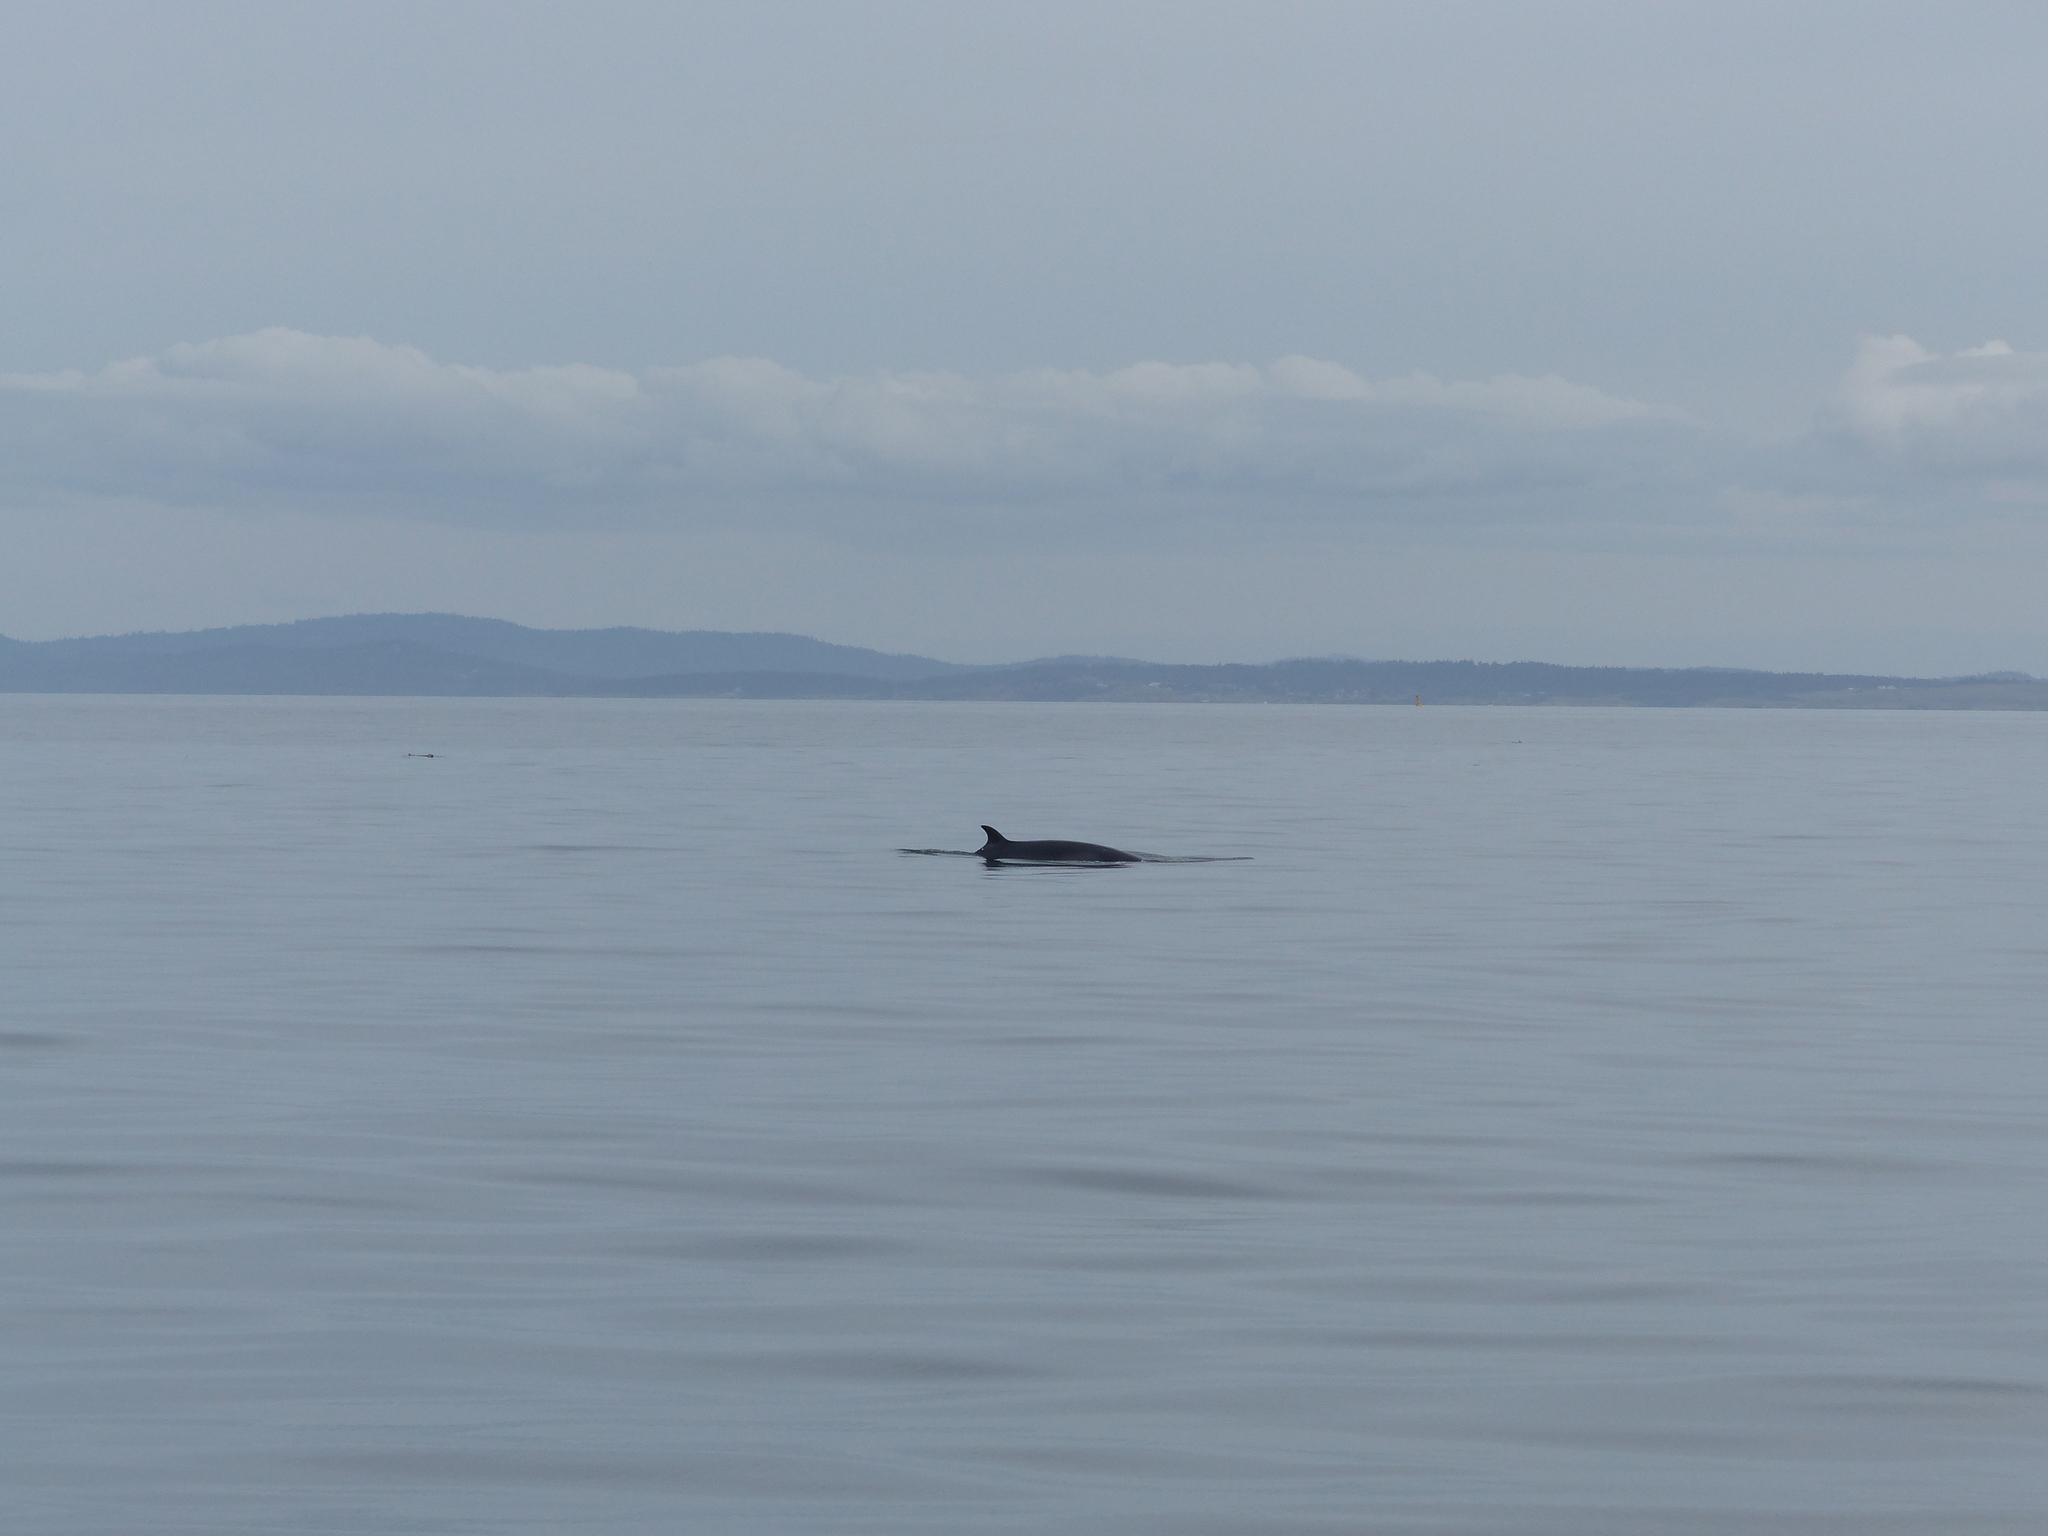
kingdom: Animalia
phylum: Chordata
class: Mammalia
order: Cetacea
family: Balaenopteridae
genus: Balaenoptera
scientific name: Balaenoptera acutorostrata
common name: Common minke whale
